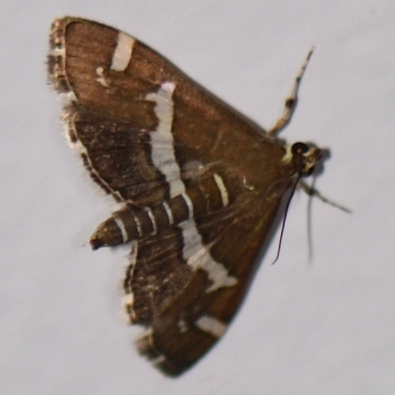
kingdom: Animalia
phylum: Arthropoda
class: Insecta
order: Lepidoptera
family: Crambidae
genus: Spoladea
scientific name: Spoladea recurvalis
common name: Beet webworm moth
